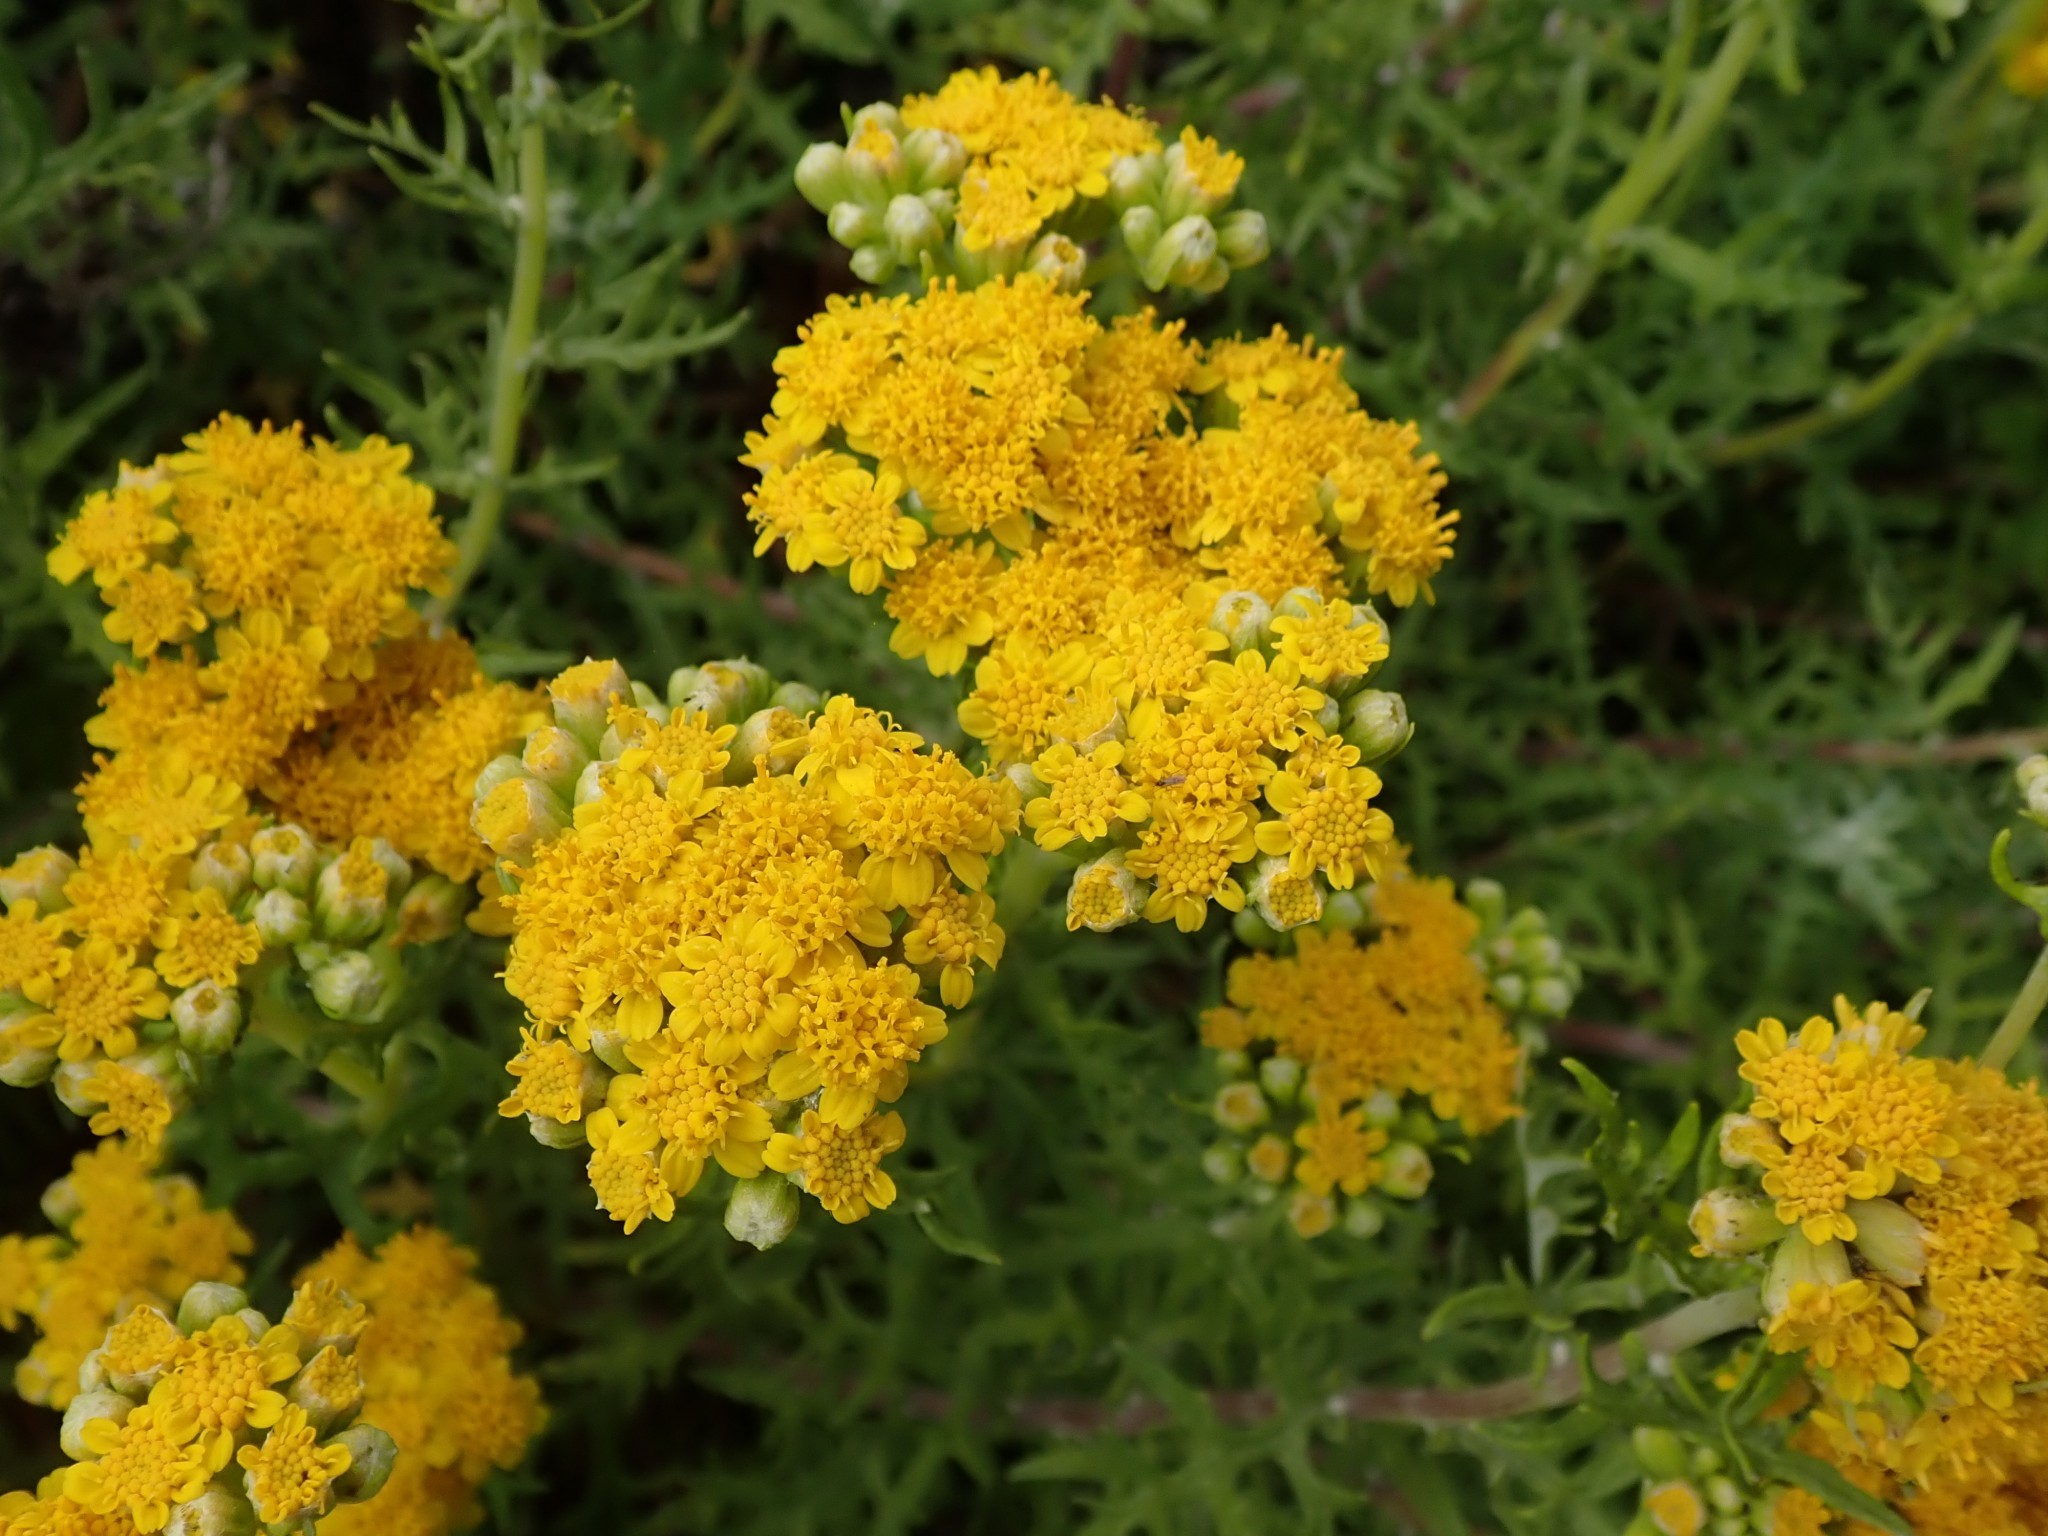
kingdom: Plantae
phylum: Tracheophyta
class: Magnoliopsida
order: Asterales
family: Asteraceae
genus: Eriophyllum
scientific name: Eriophyllum staechadifolium
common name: Lizardtail
